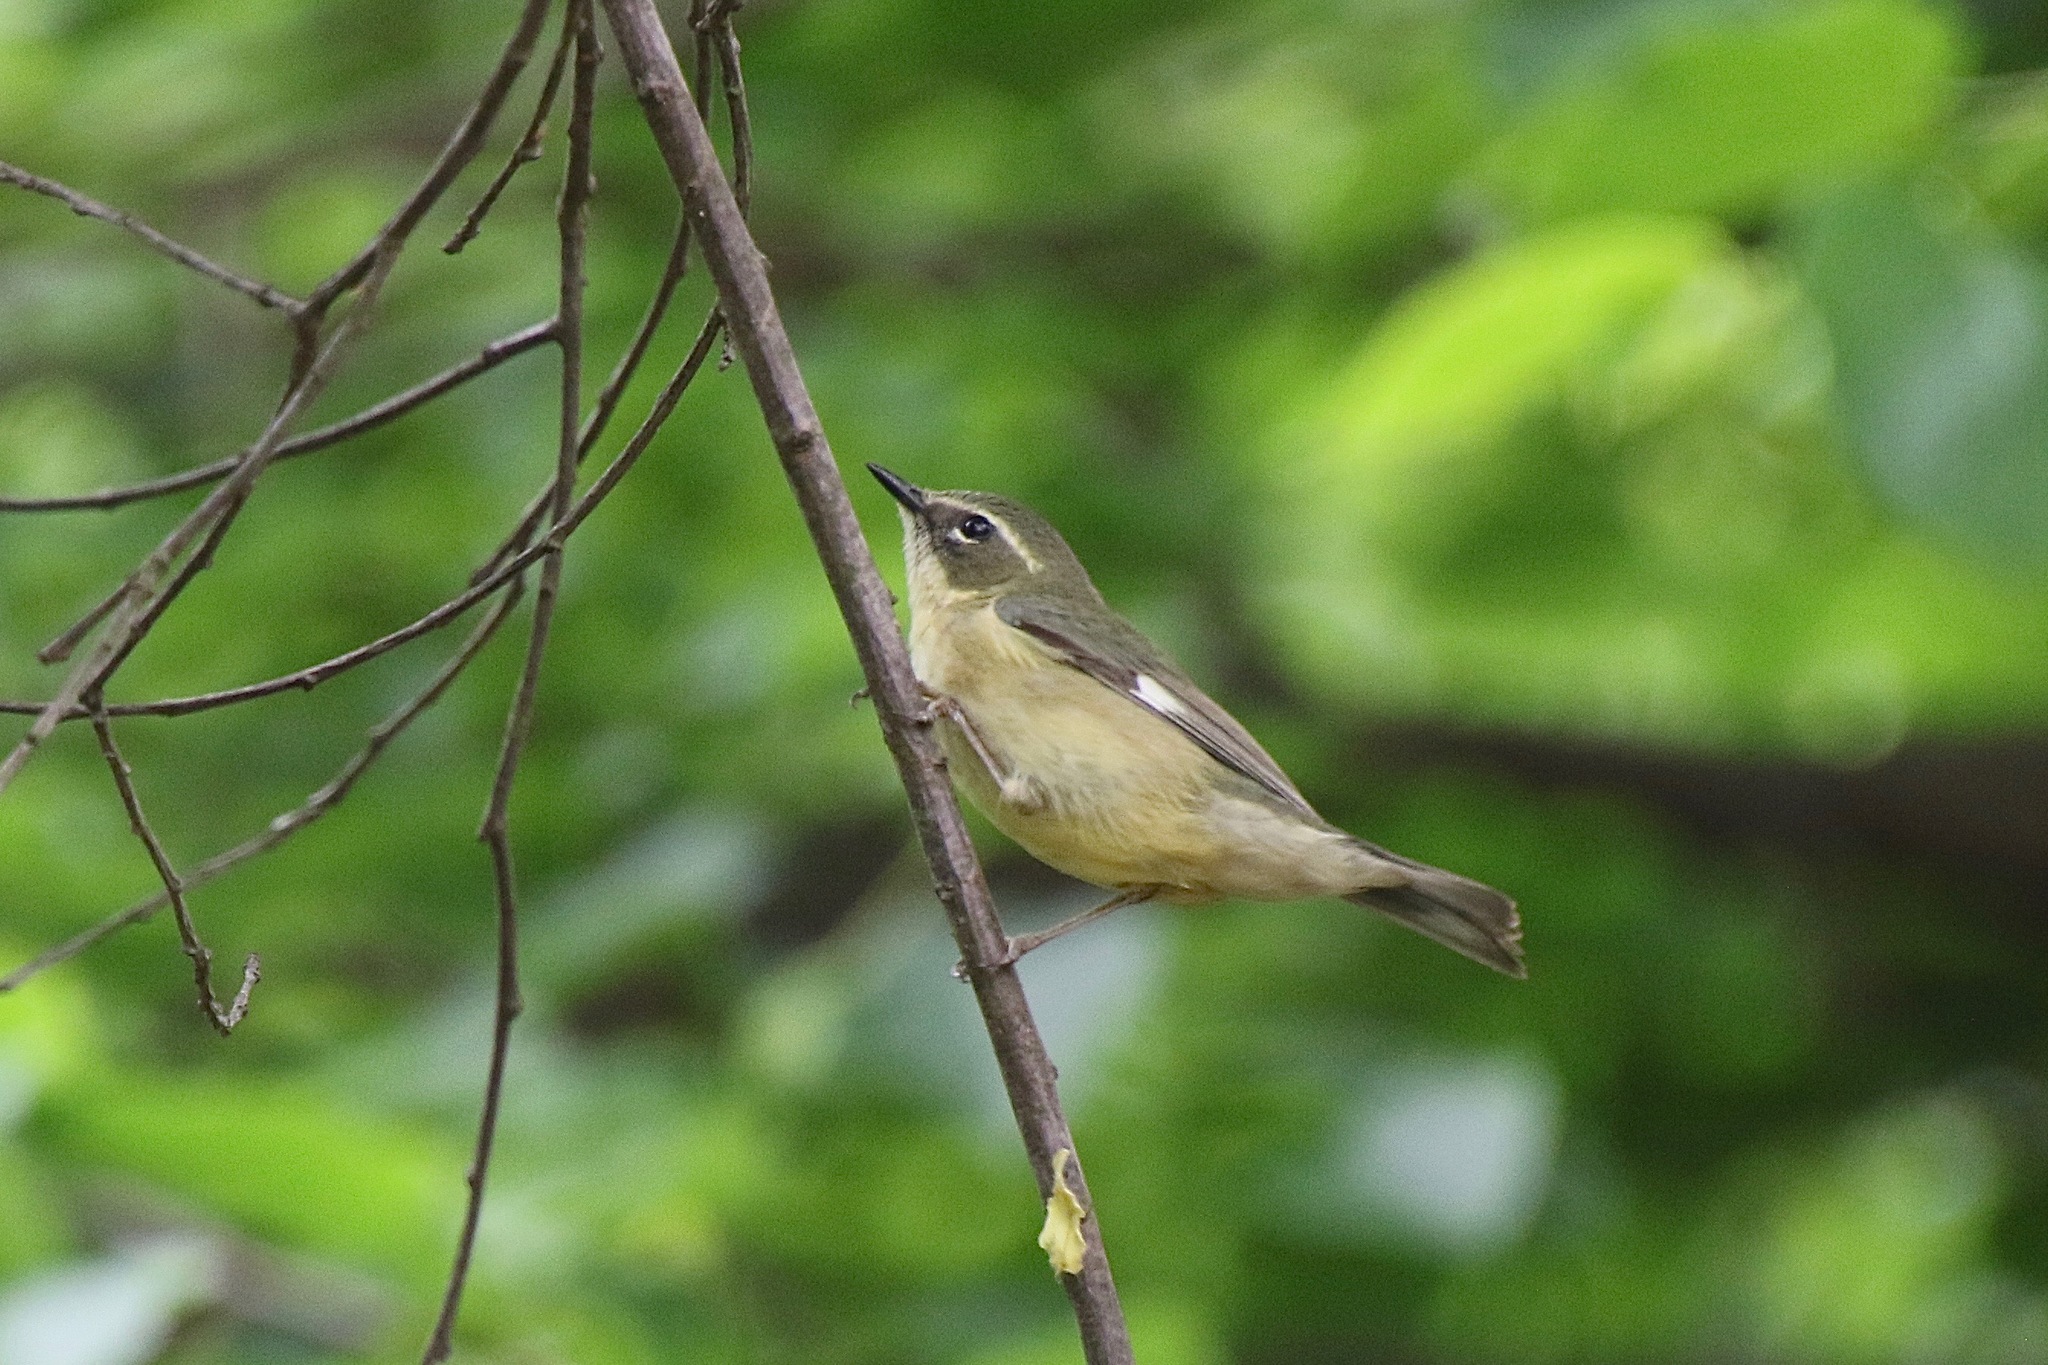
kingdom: Animalia
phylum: Chordata
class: Aves
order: Passeriformes
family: Parulidae
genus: Setophaga
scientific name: Setophaga caerulescens
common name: Black-throated blue warbler
